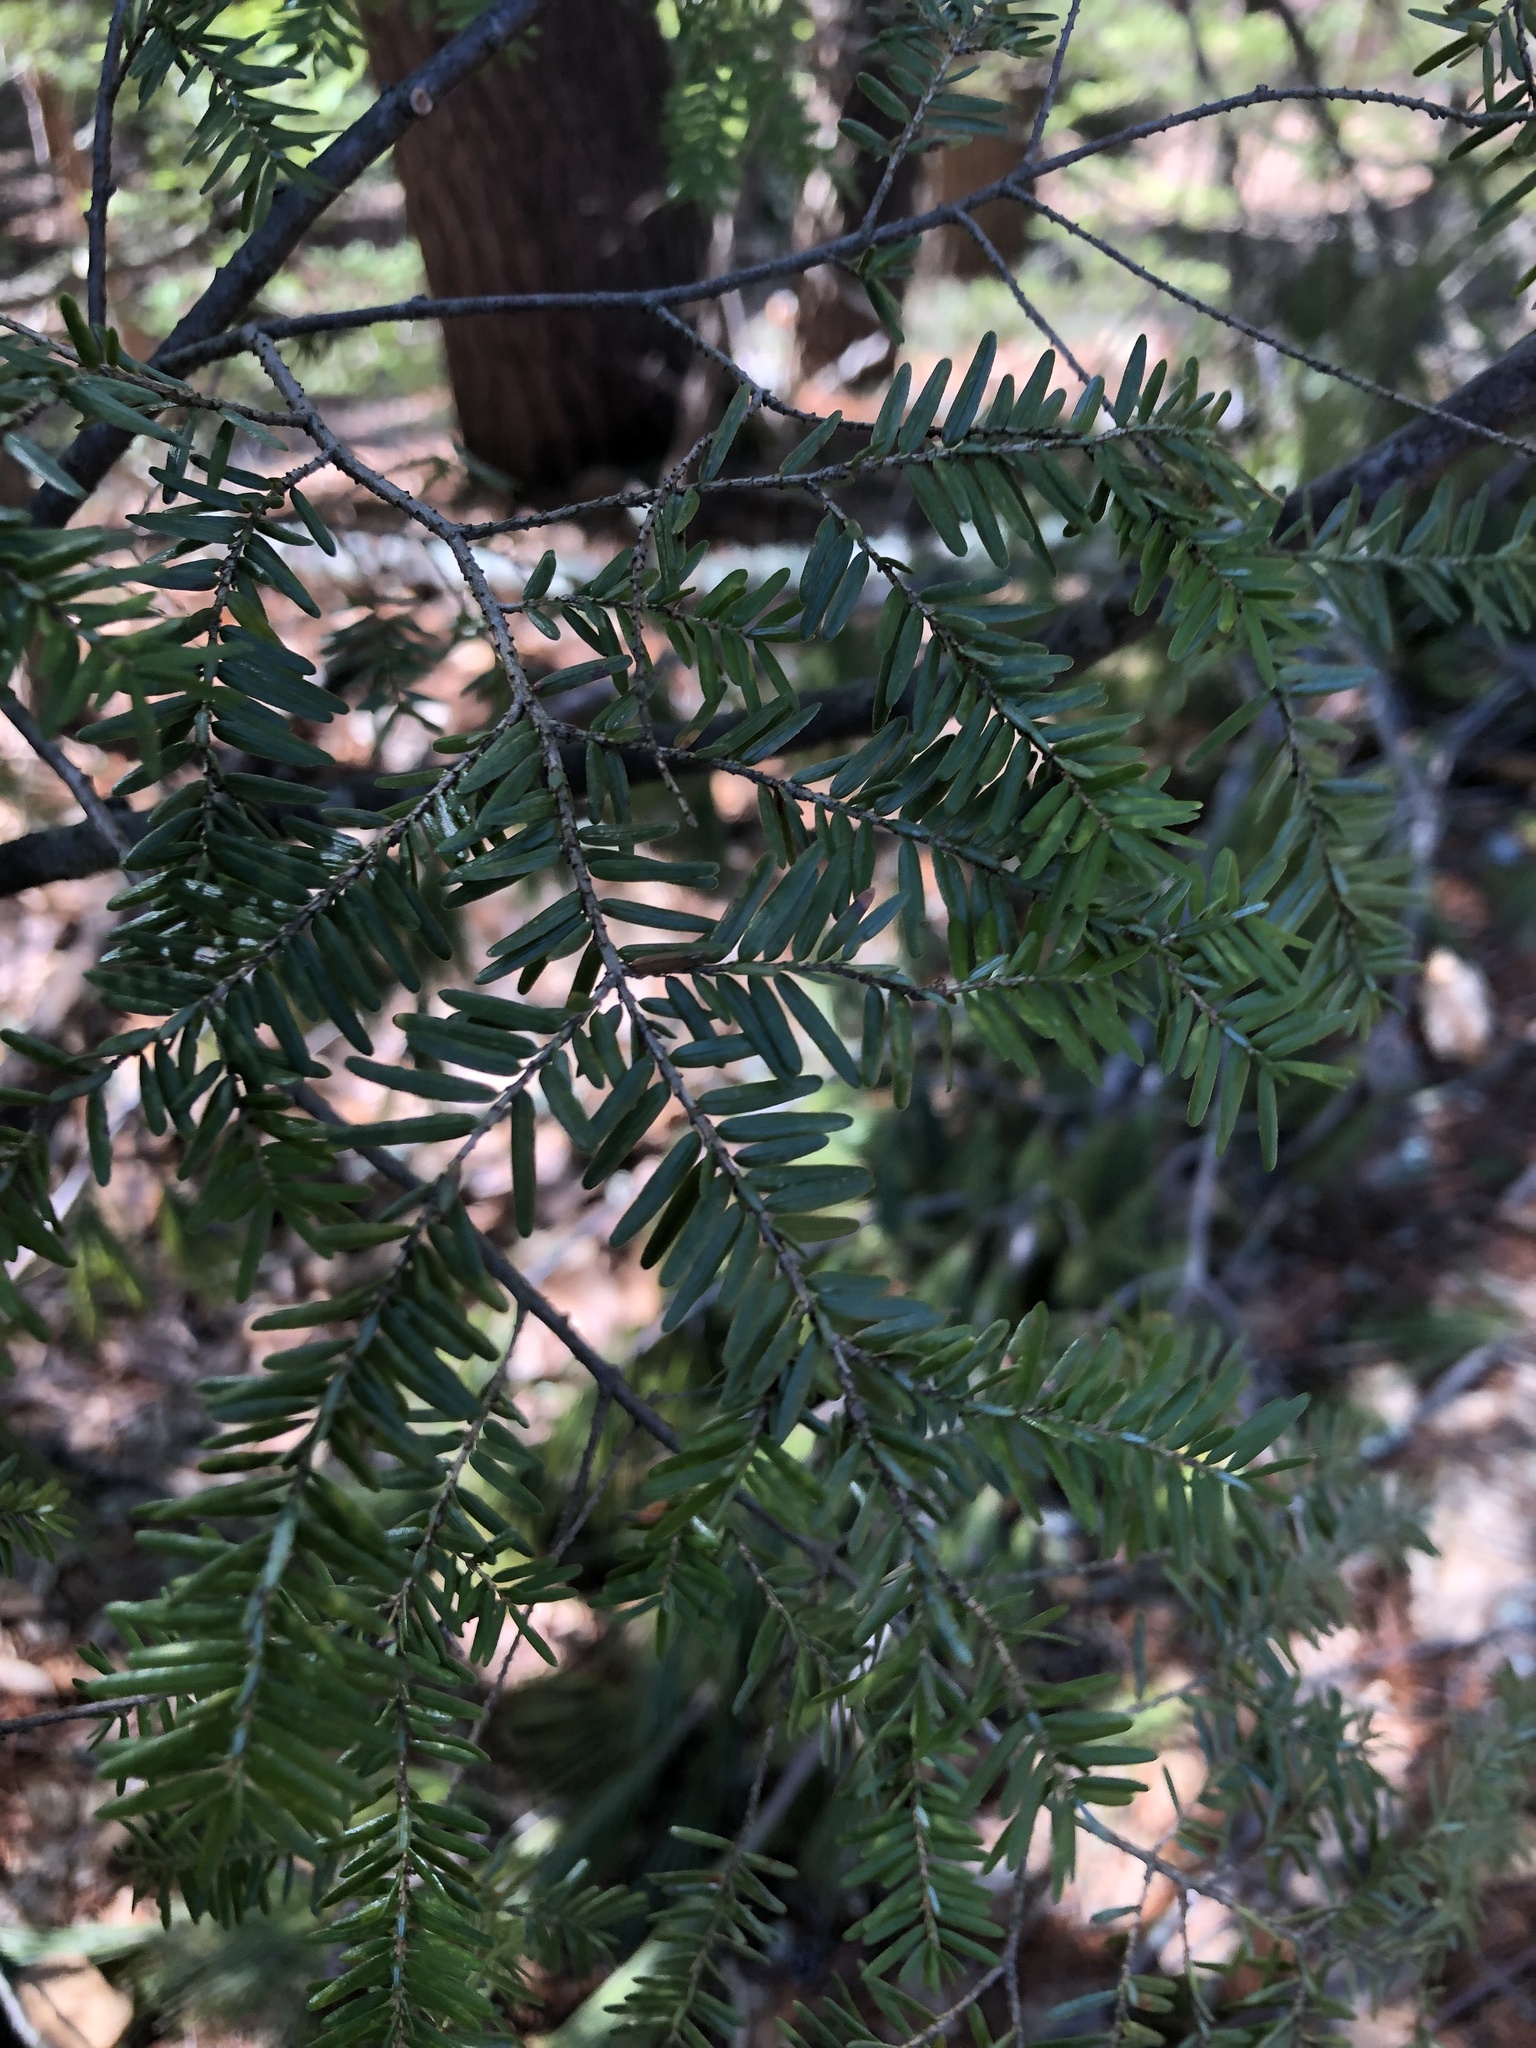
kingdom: Plantae
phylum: Tracheophyta
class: Pinopsida
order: Pinales
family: Pinaceae
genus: Tsuga
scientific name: Tsuga canadensis
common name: Eastern hemlock
